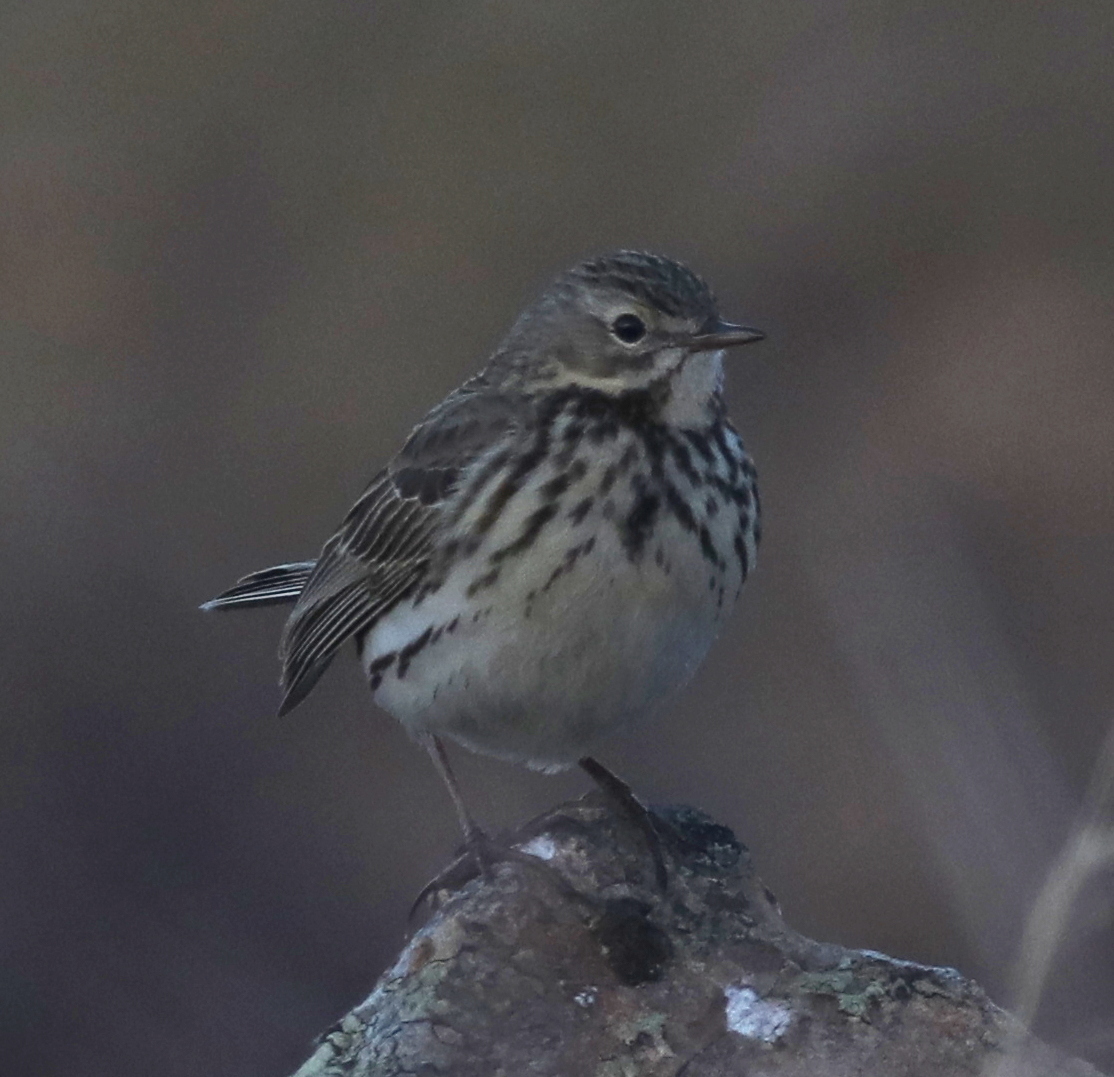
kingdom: Animalia
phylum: Chordata
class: Aves
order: Passeriformes
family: Motacillidae
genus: Anthus
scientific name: Anthus pratensis
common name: Meadow pipit
